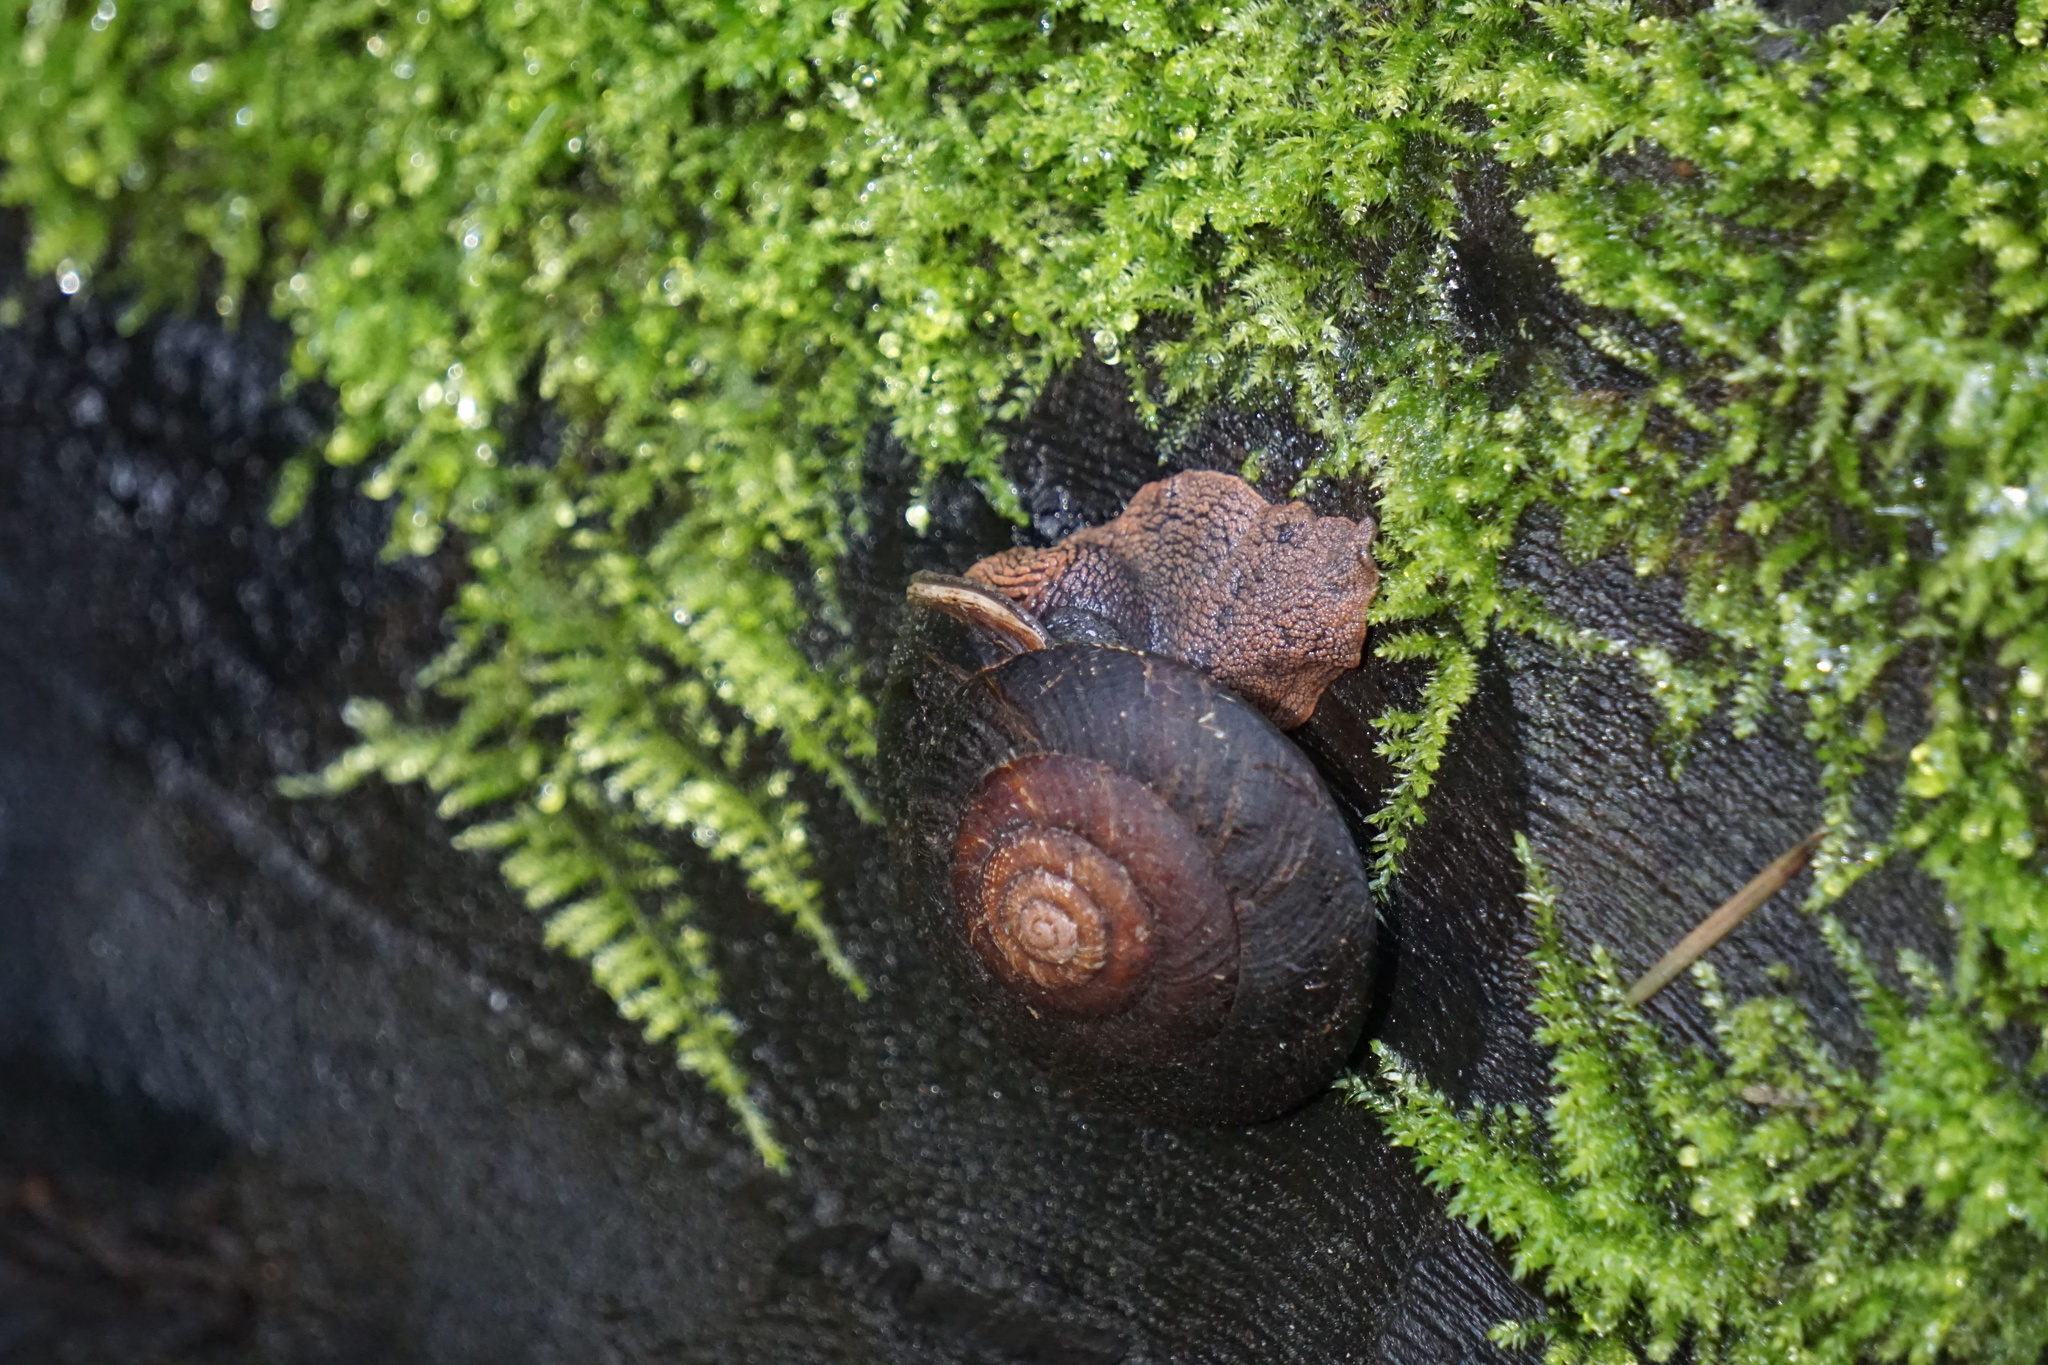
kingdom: Animalia
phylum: Mollusca
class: Gastropoda
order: Stylommatophora
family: Xanthonychidae
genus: Monadenia
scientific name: Monadenia infumata
